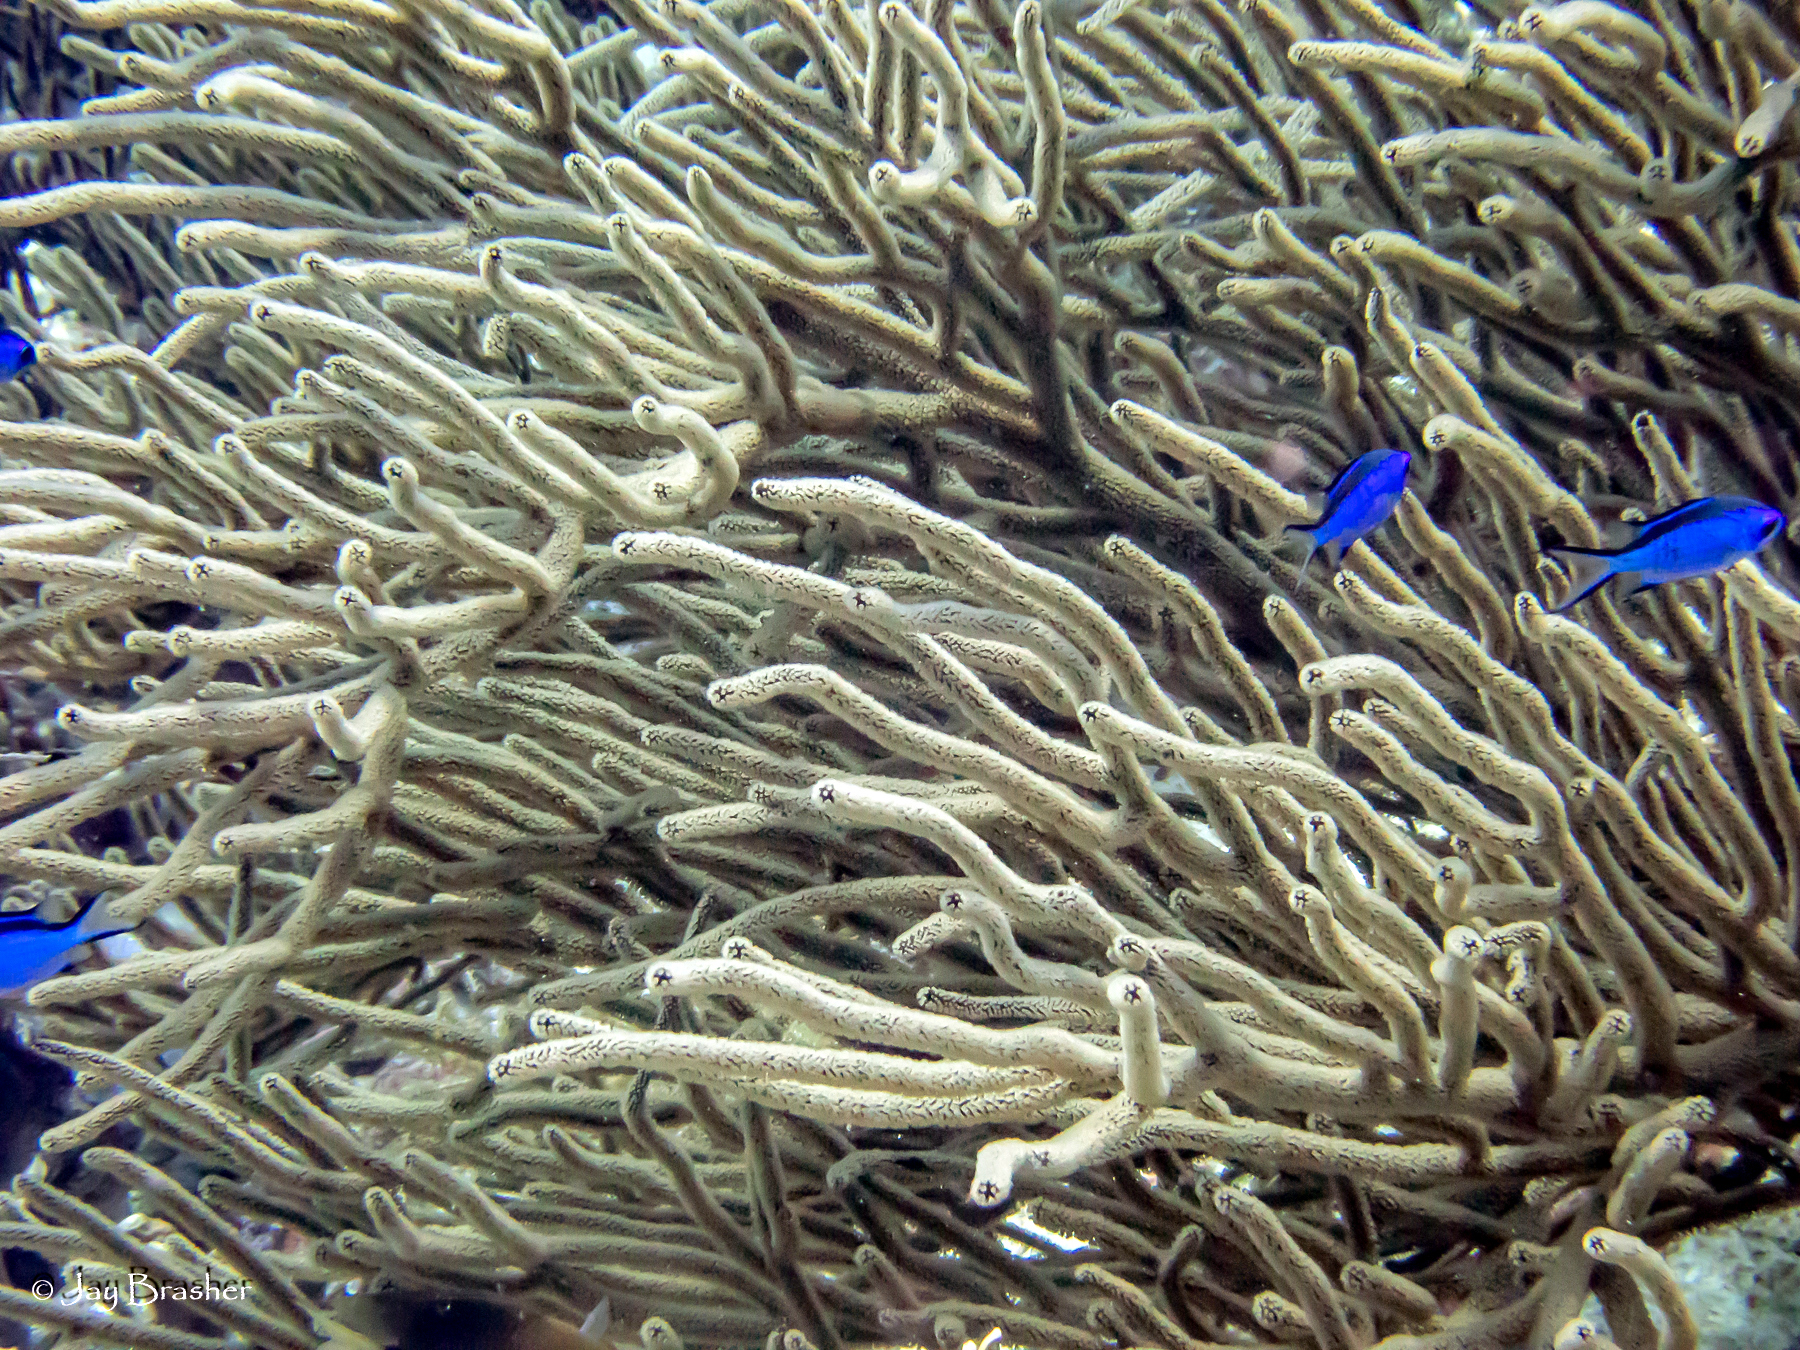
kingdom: Animalia
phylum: Chordata
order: Perciformes
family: Pomacentridae
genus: Chromis
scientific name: Chromis cyanea
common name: Blue chromis
